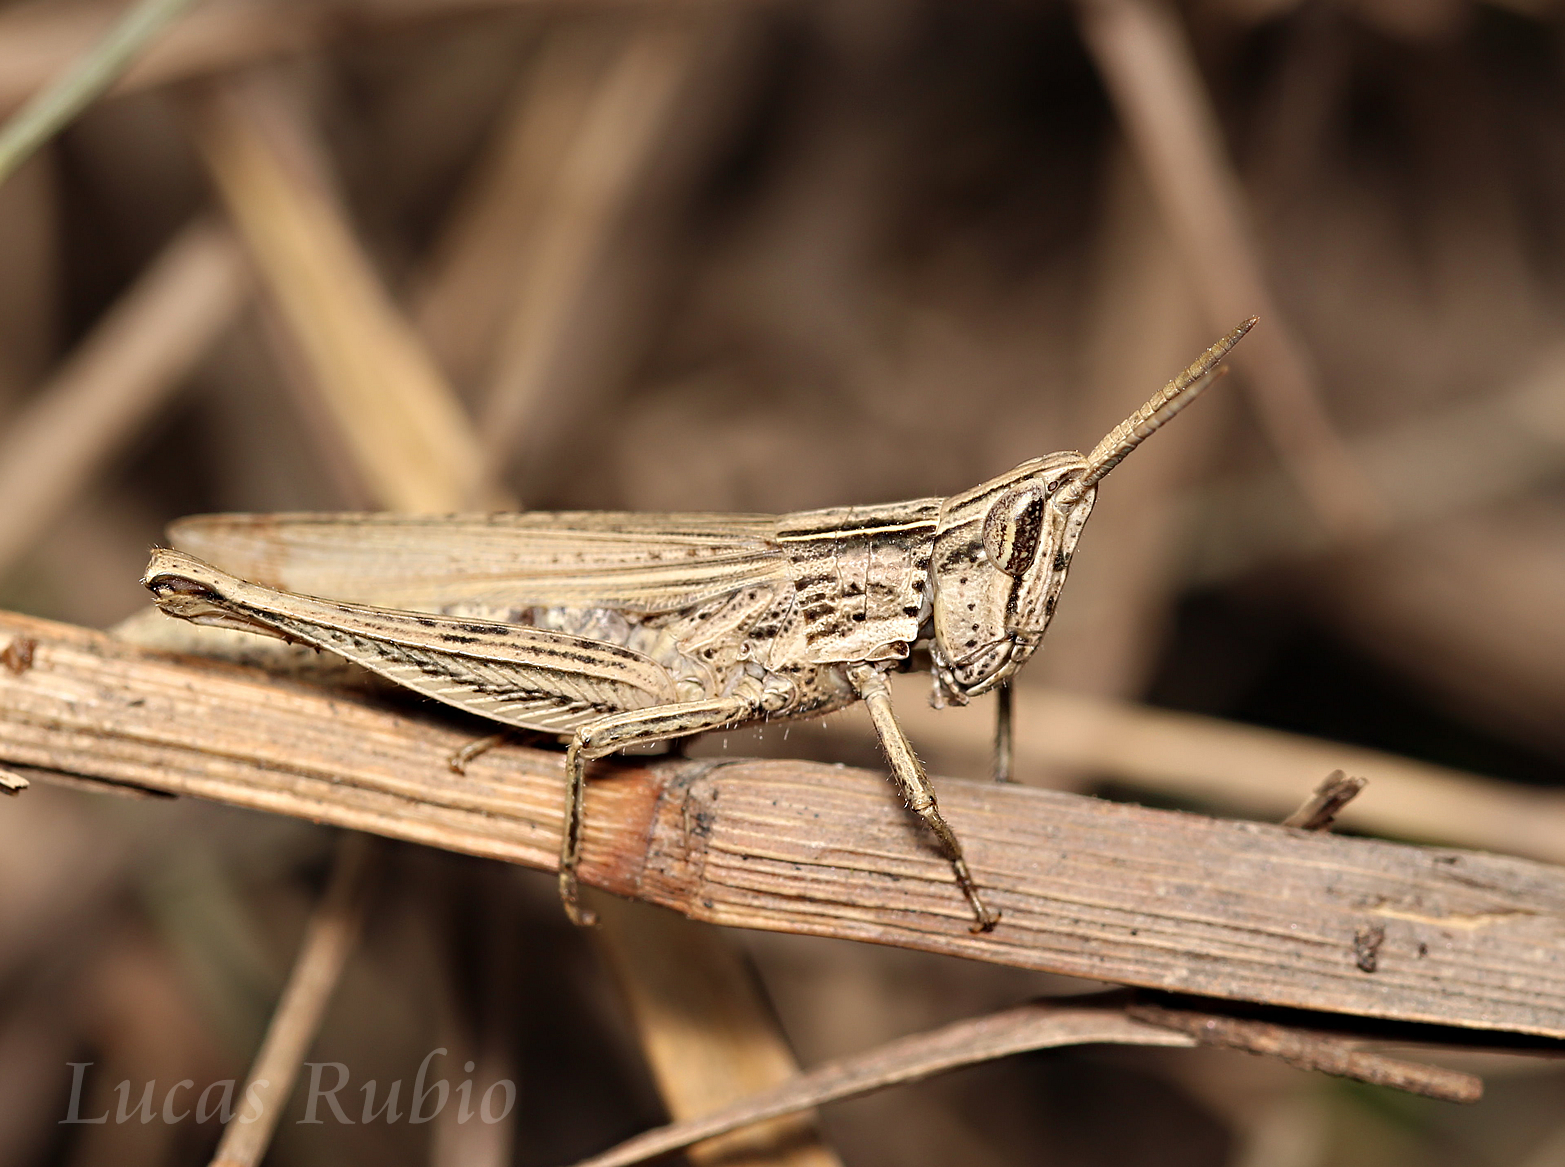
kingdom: Animalia
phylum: Arthropoda
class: Insecta
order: Orthoptera
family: Acrididae
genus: Laplatacris
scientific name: Laplatacris dispar
